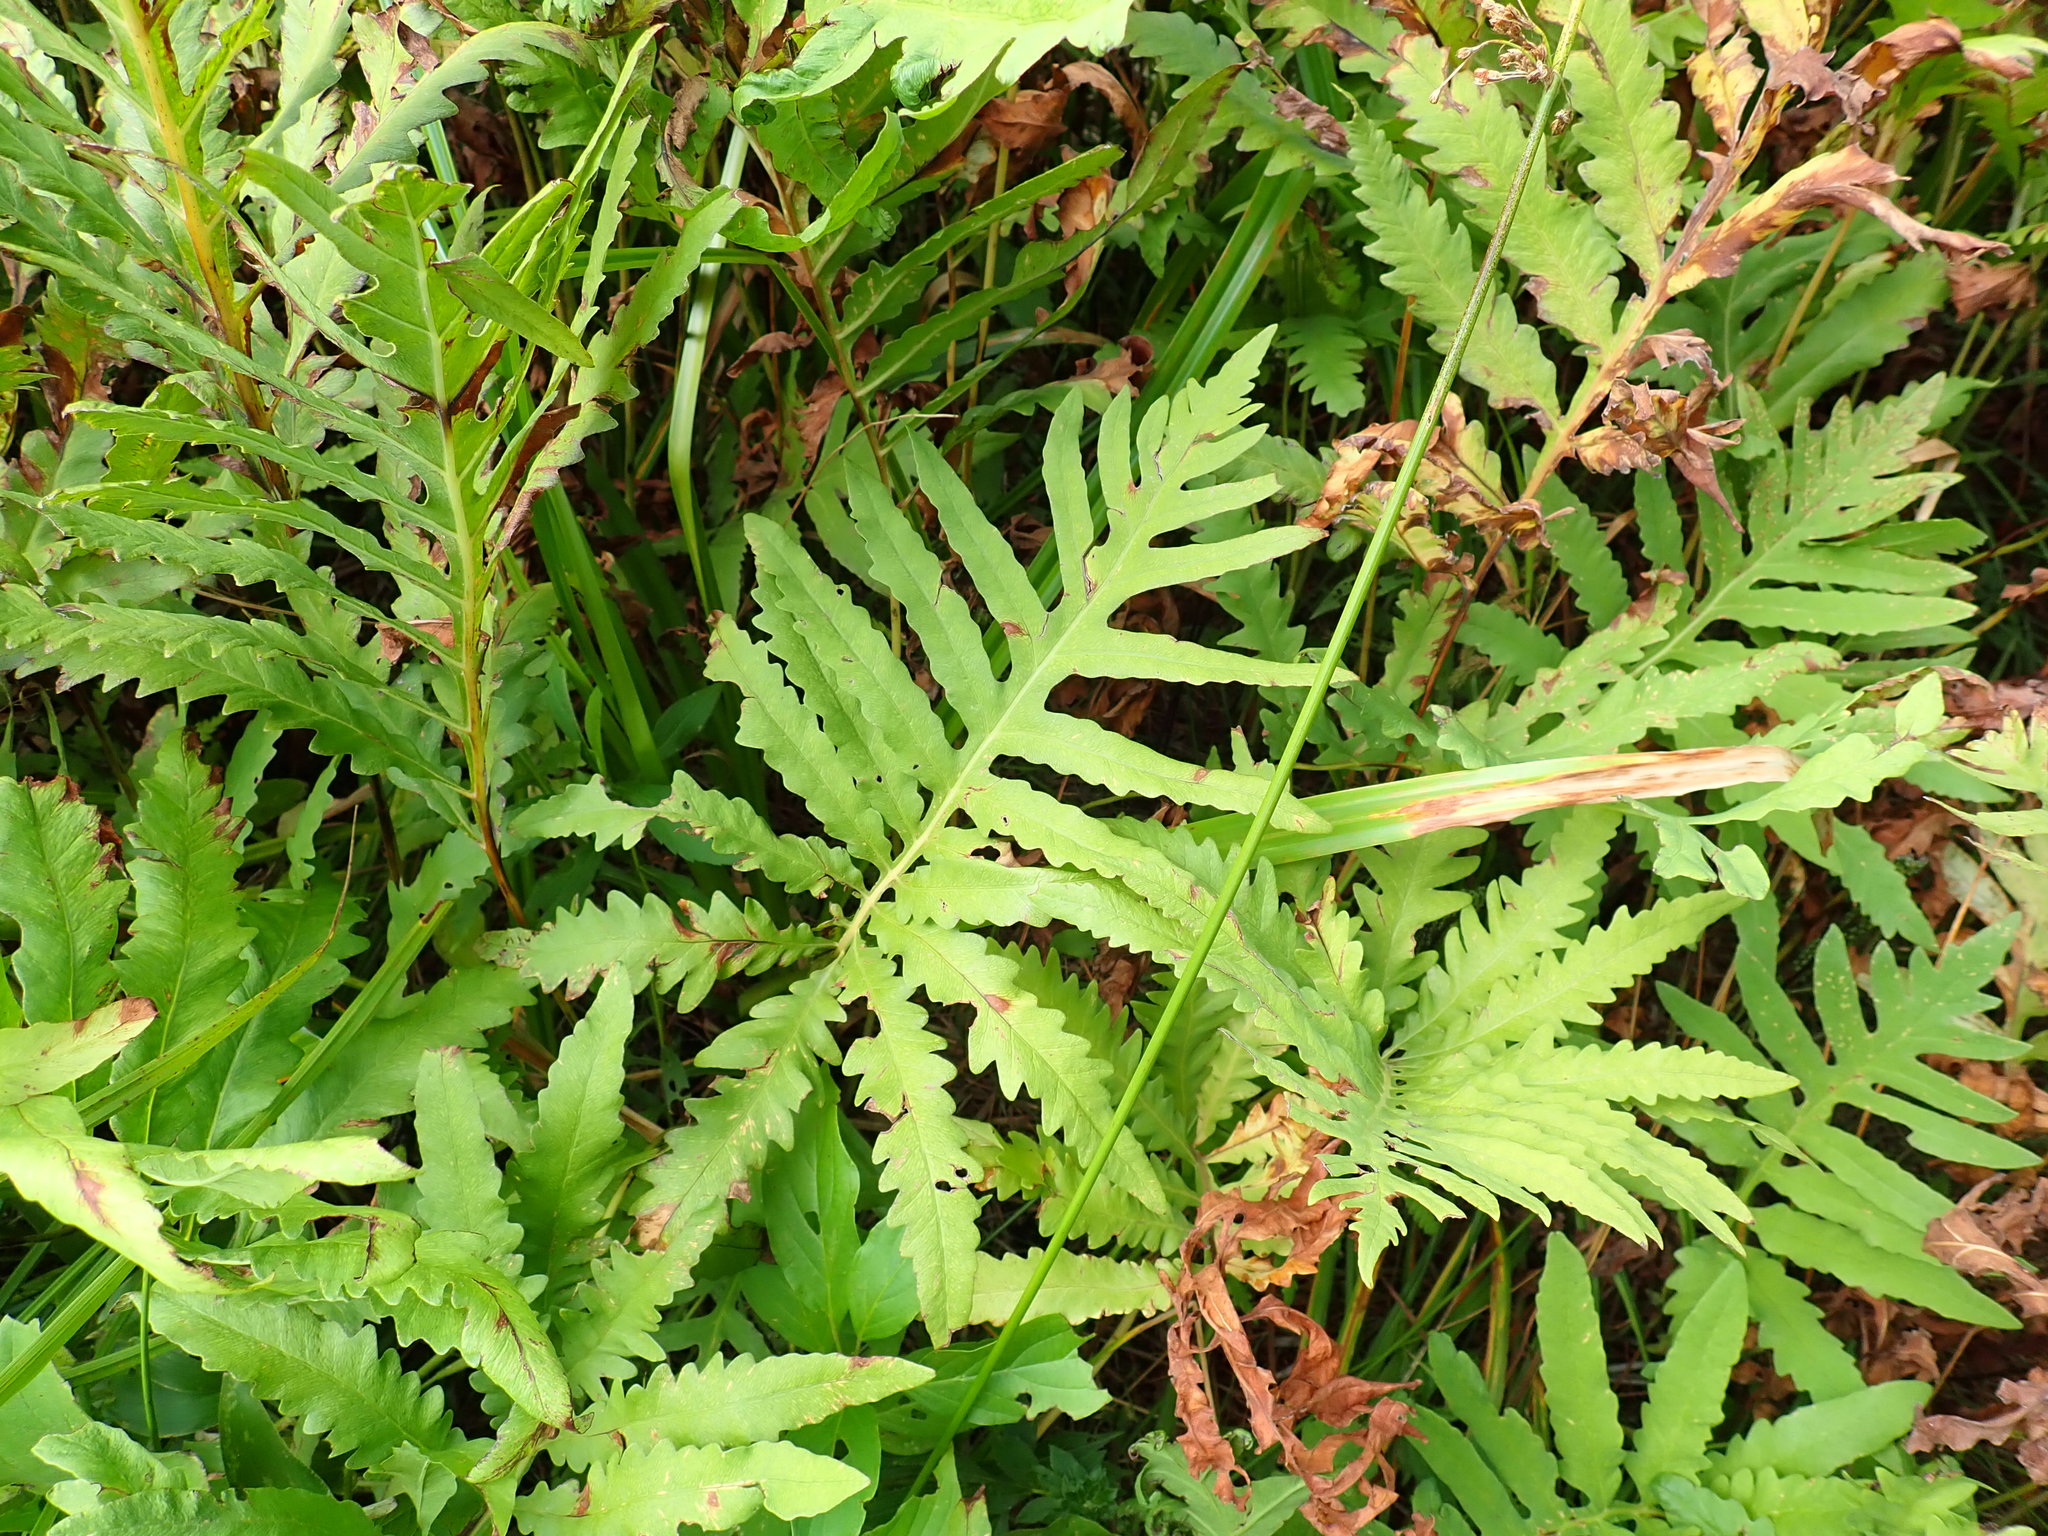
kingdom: Plantae
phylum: Tracheophyta
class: Polypodiopsida
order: Polypodiales
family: Onocleaceae
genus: Onoclea
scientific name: Onoclea sensibilis
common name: Sensitive fern
